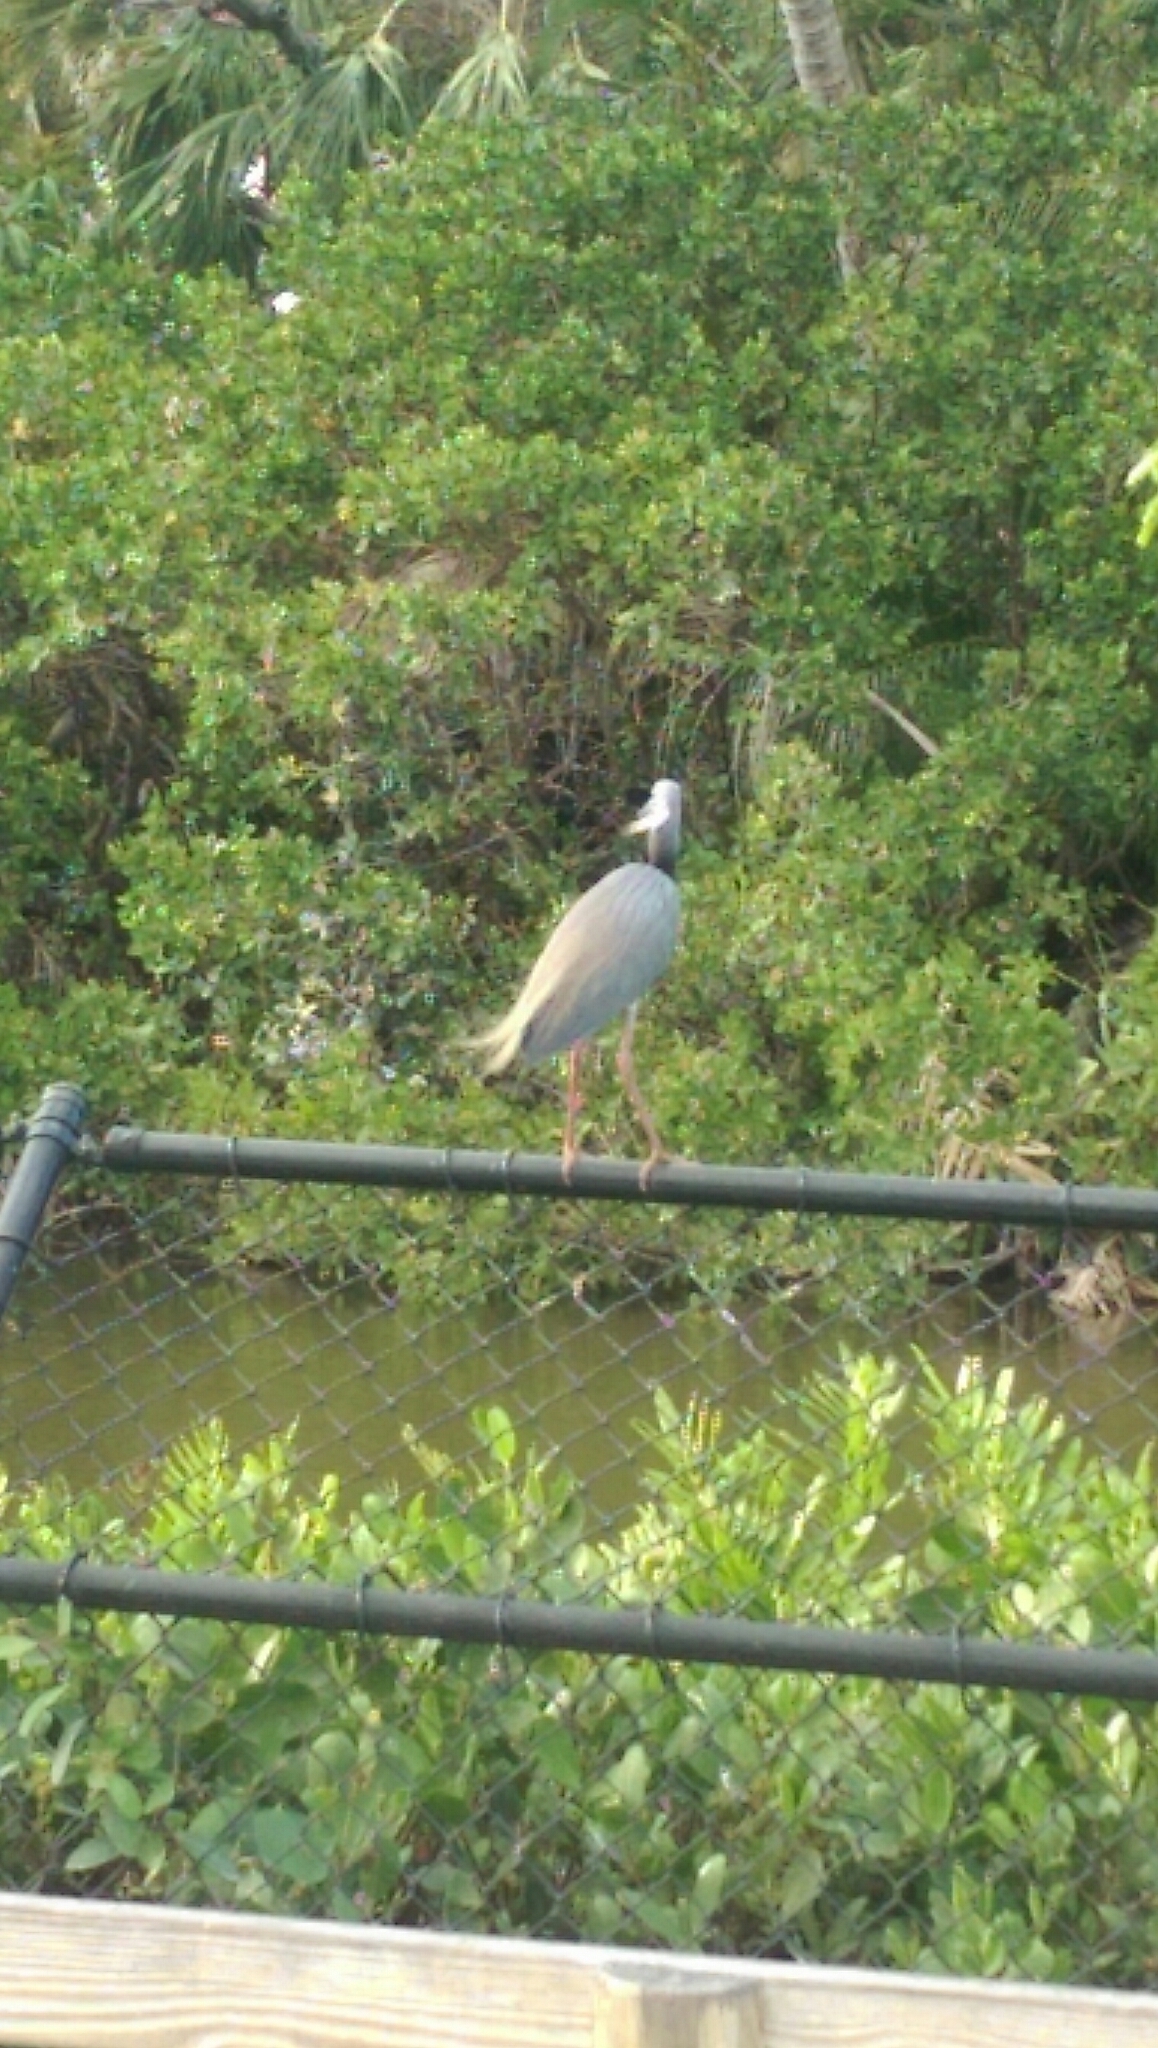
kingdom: Animalia
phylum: Chordata
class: Aves
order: Pelecaniformes
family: Ardeidae
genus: Egretta
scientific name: Egretta tricolor
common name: Tricolored heron
